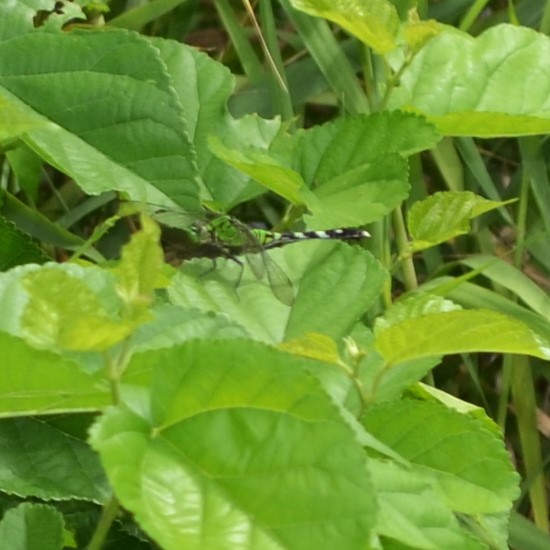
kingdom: Animalia
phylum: Arthropoda
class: Insecta
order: Odonata
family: Libellulidae
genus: Erythemis
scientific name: Erythemis simplicicollis
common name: Eastern pondhawk
